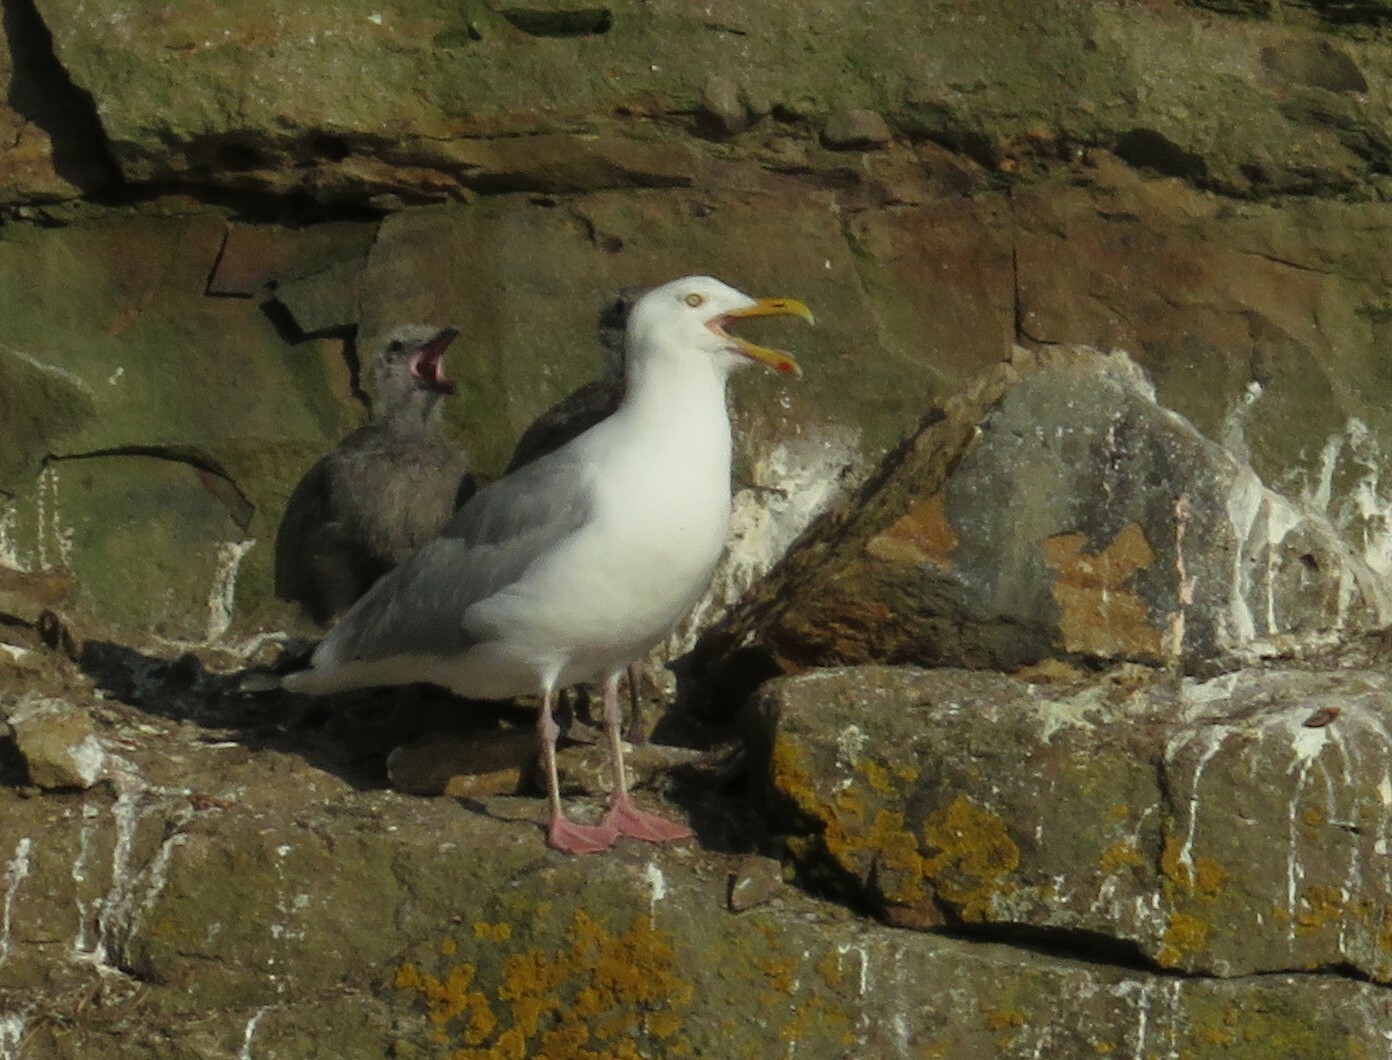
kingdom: Animalia
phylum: Chordata
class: Aves
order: Charadriiformes
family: Laridae
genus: Larus
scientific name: Larus argentatus
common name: Herring gull
